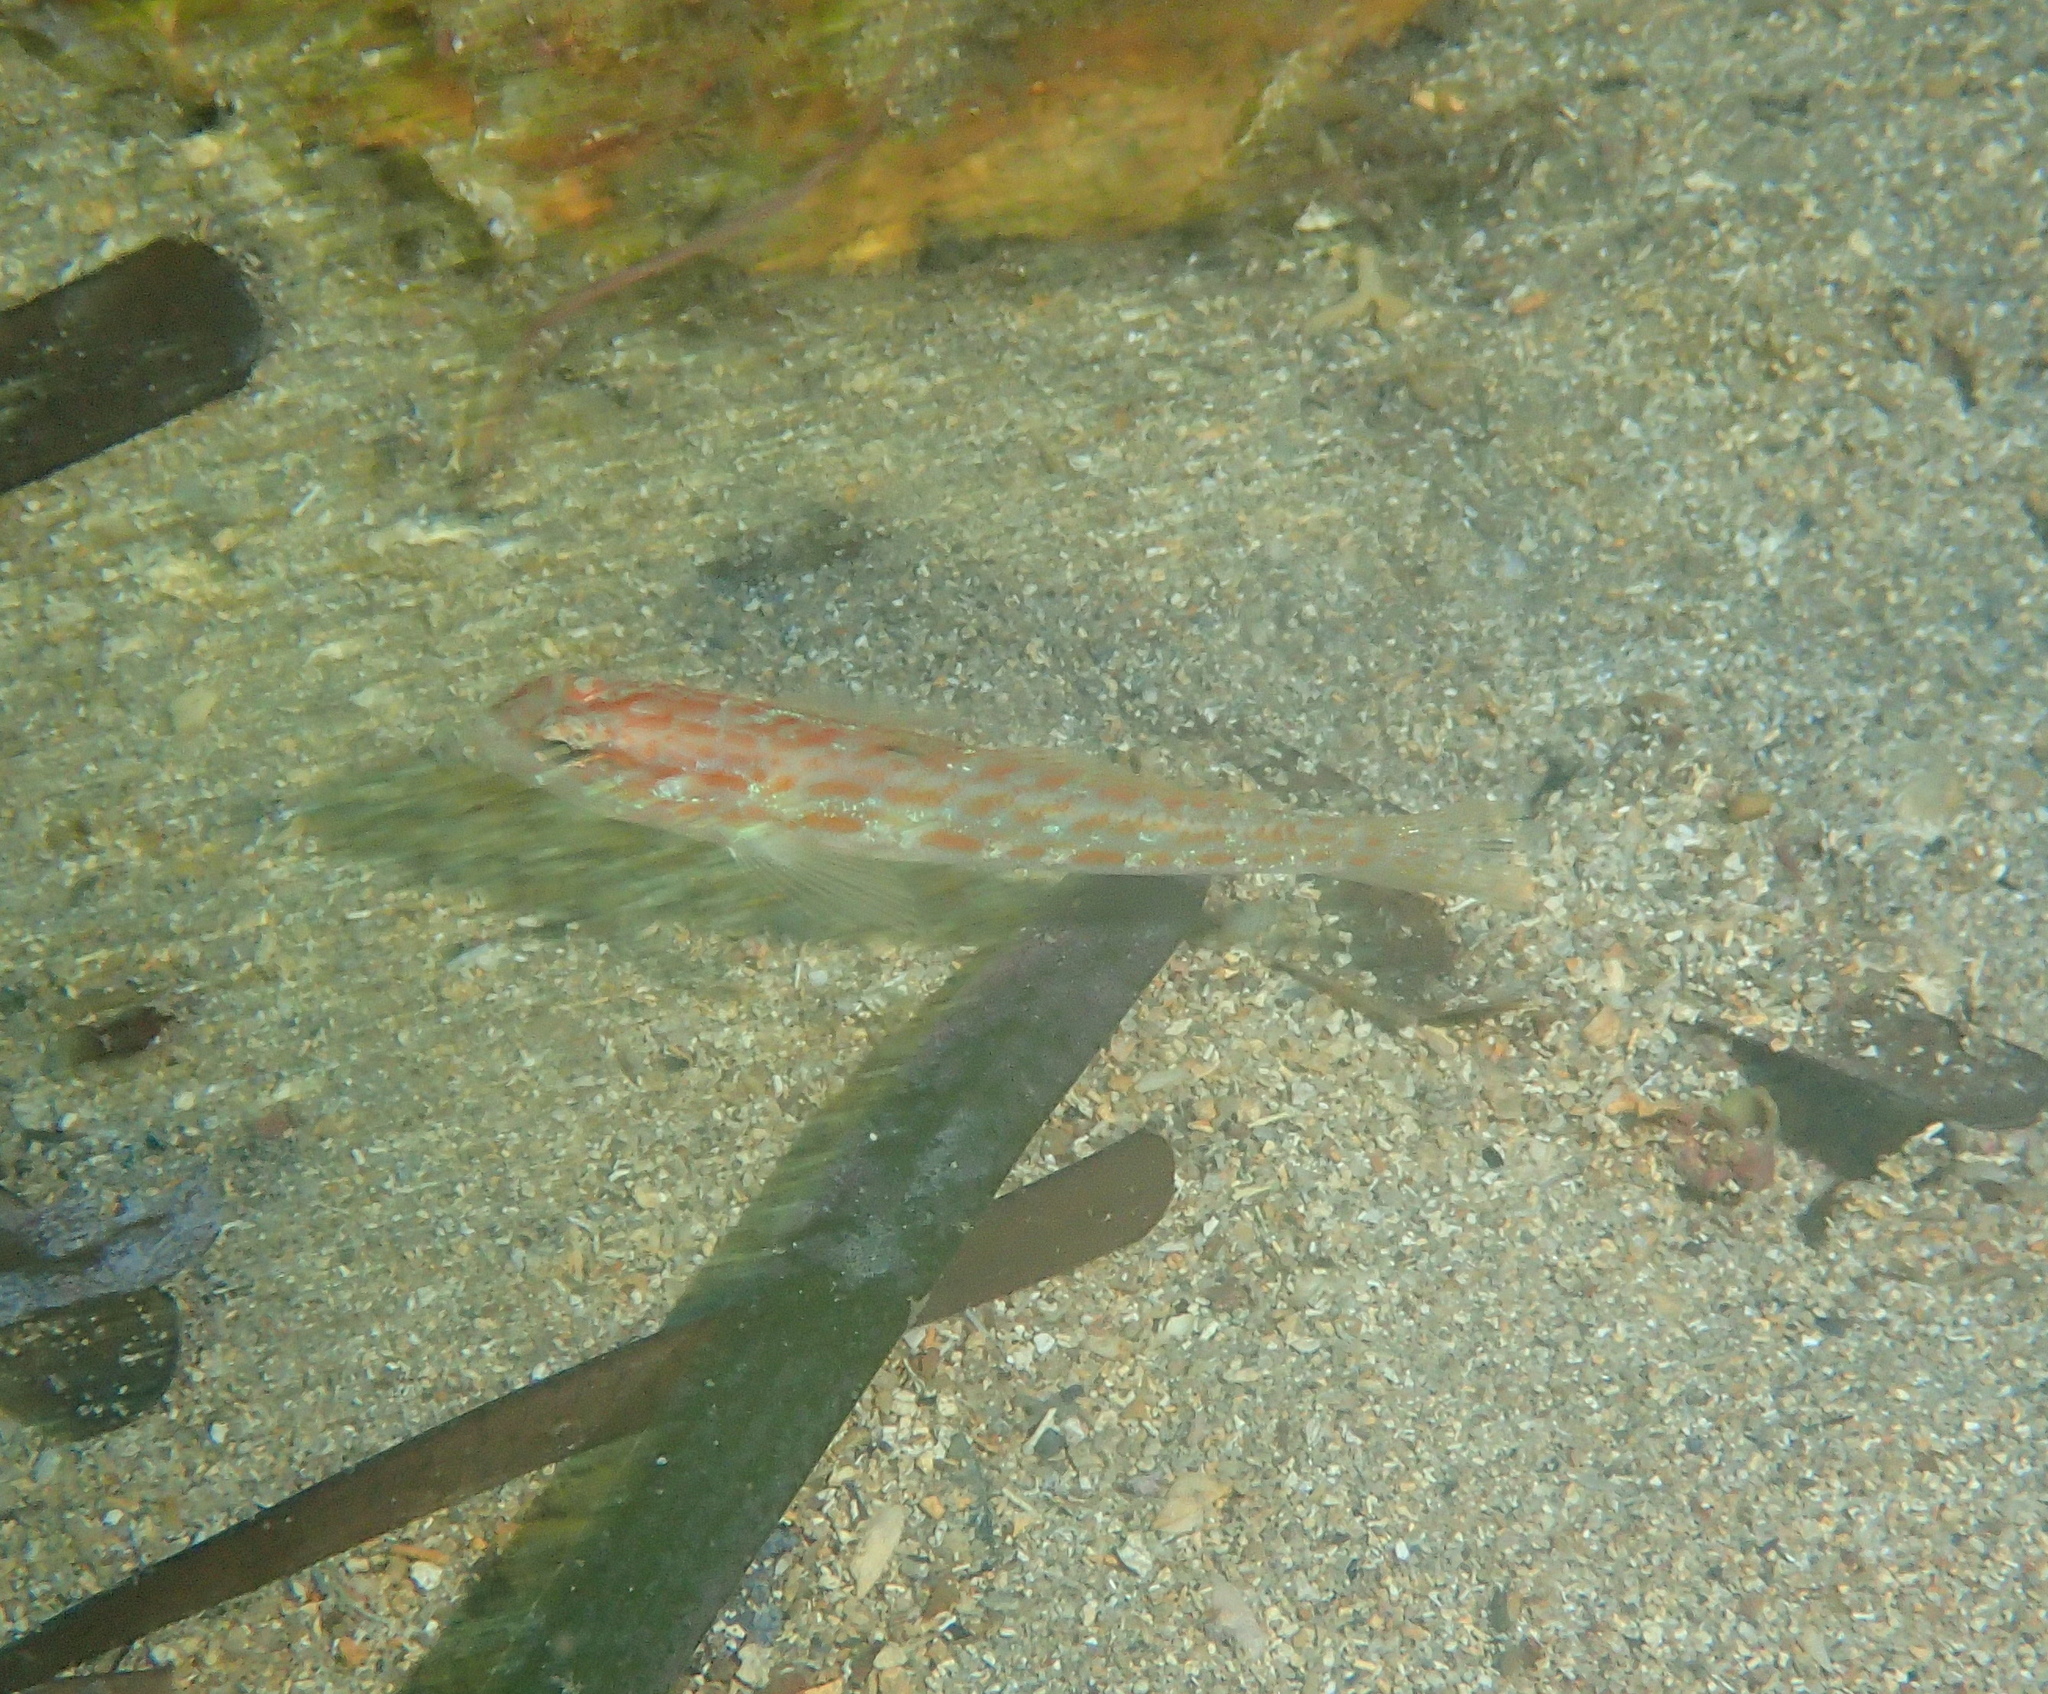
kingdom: Animalia
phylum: Chordata
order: Perciformes
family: Gobiidae
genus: Gobius
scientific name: Gobius kolombatovici
